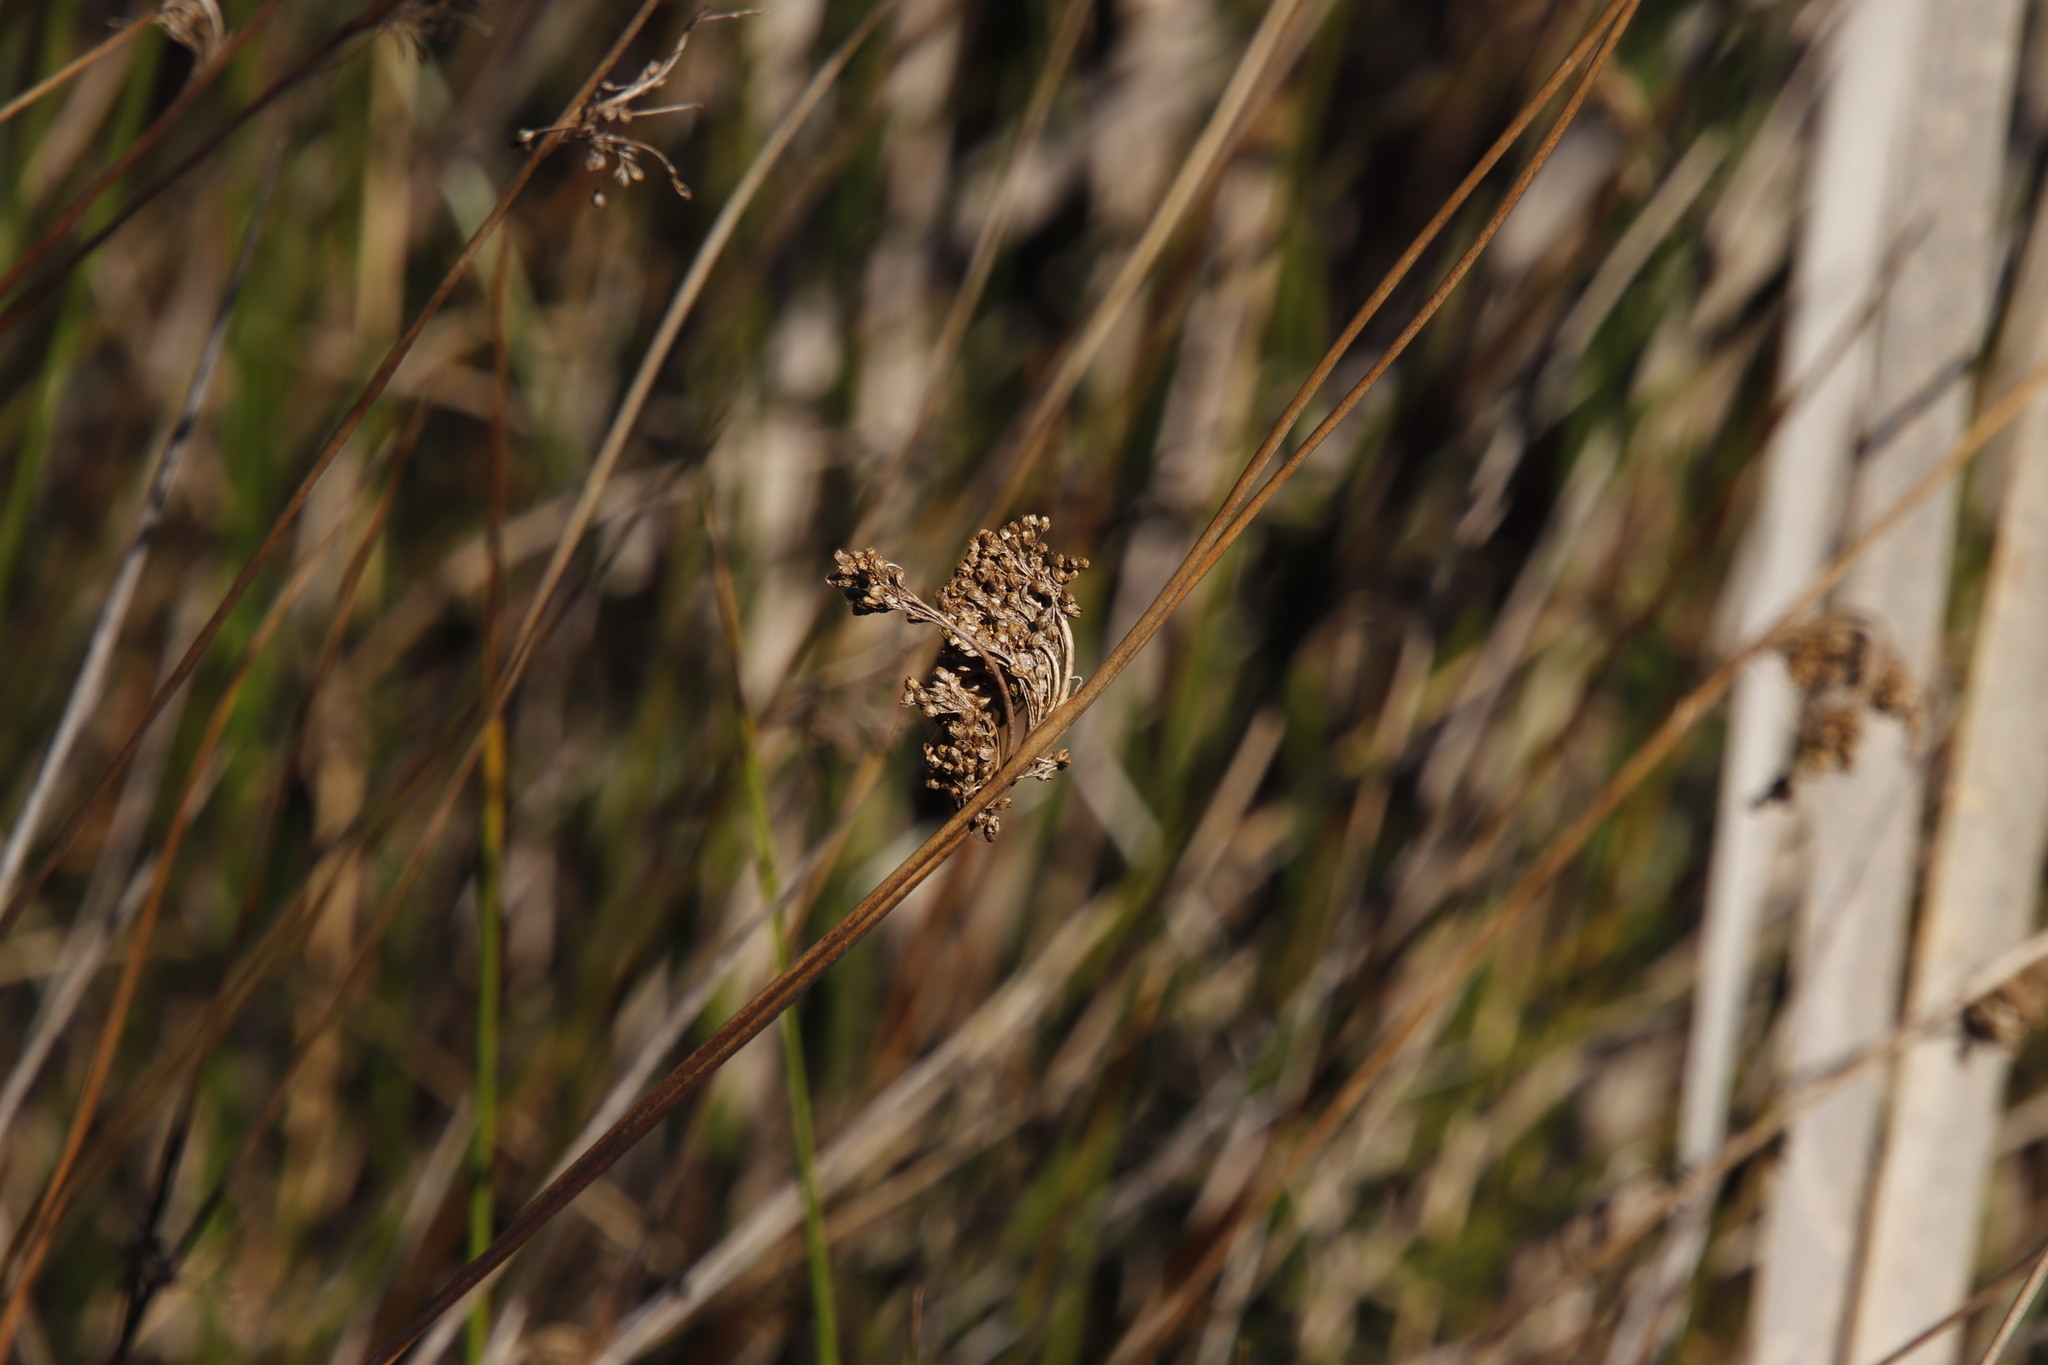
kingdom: Plantae
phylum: Tracheophyta
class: Liliopsida
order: Poales
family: Juncaceae
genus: Juncus
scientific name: Juncus effusus
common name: Soft rush
